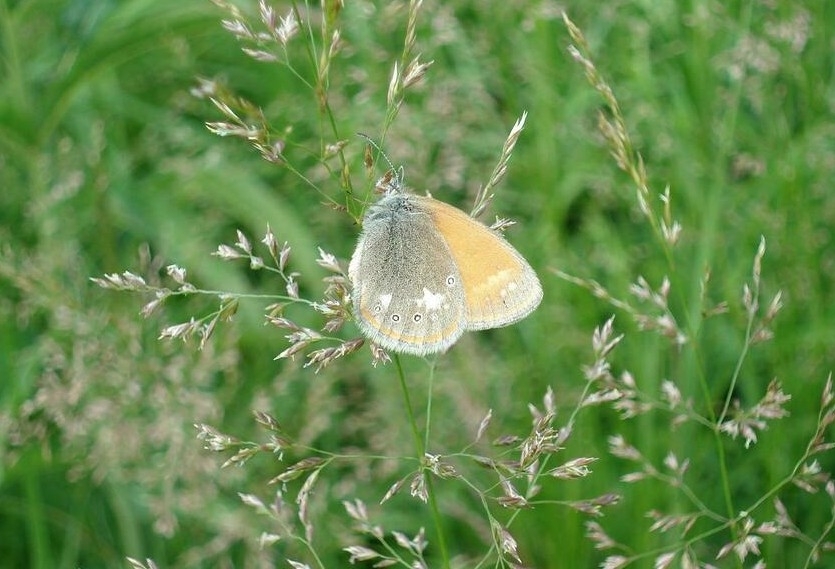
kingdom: Animalia
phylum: Arthropoda
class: Insecta
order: Lepidoptera
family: Nymphalidae
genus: Coenonympha
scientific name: Coenonympha iphis
